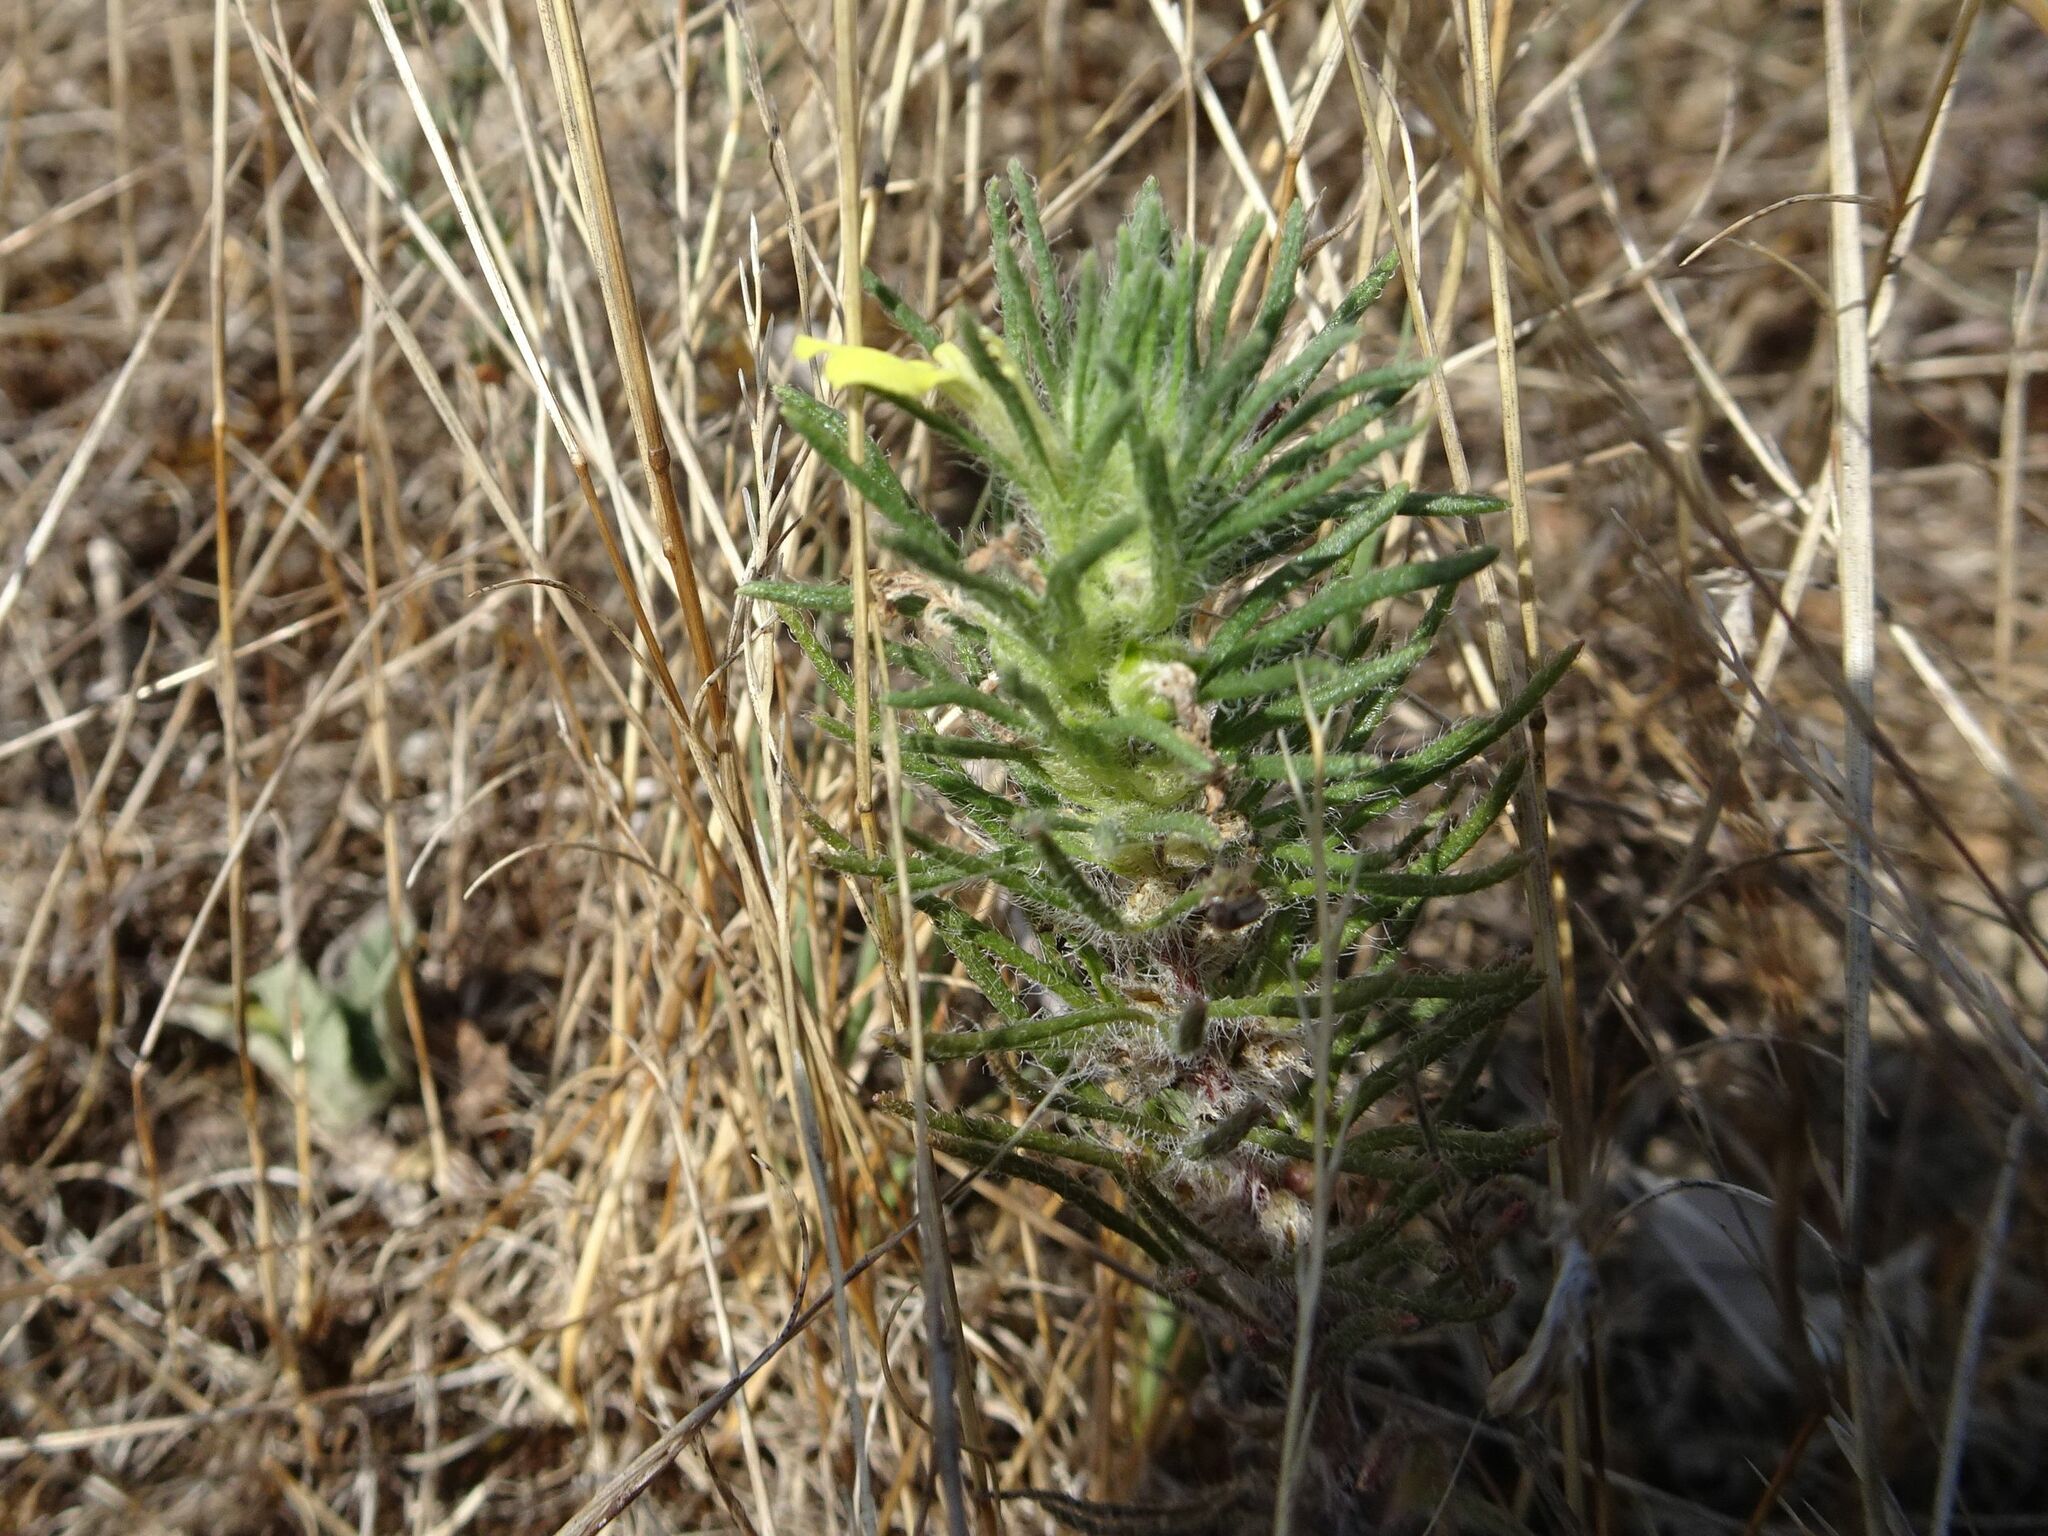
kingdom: Plantae
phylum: Tracheophyta
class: Magnoliopsida
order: Lamiales
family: Lamiaceae
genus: Ajuga
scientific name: Ajuga chamaepitys
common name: Ground-pine
